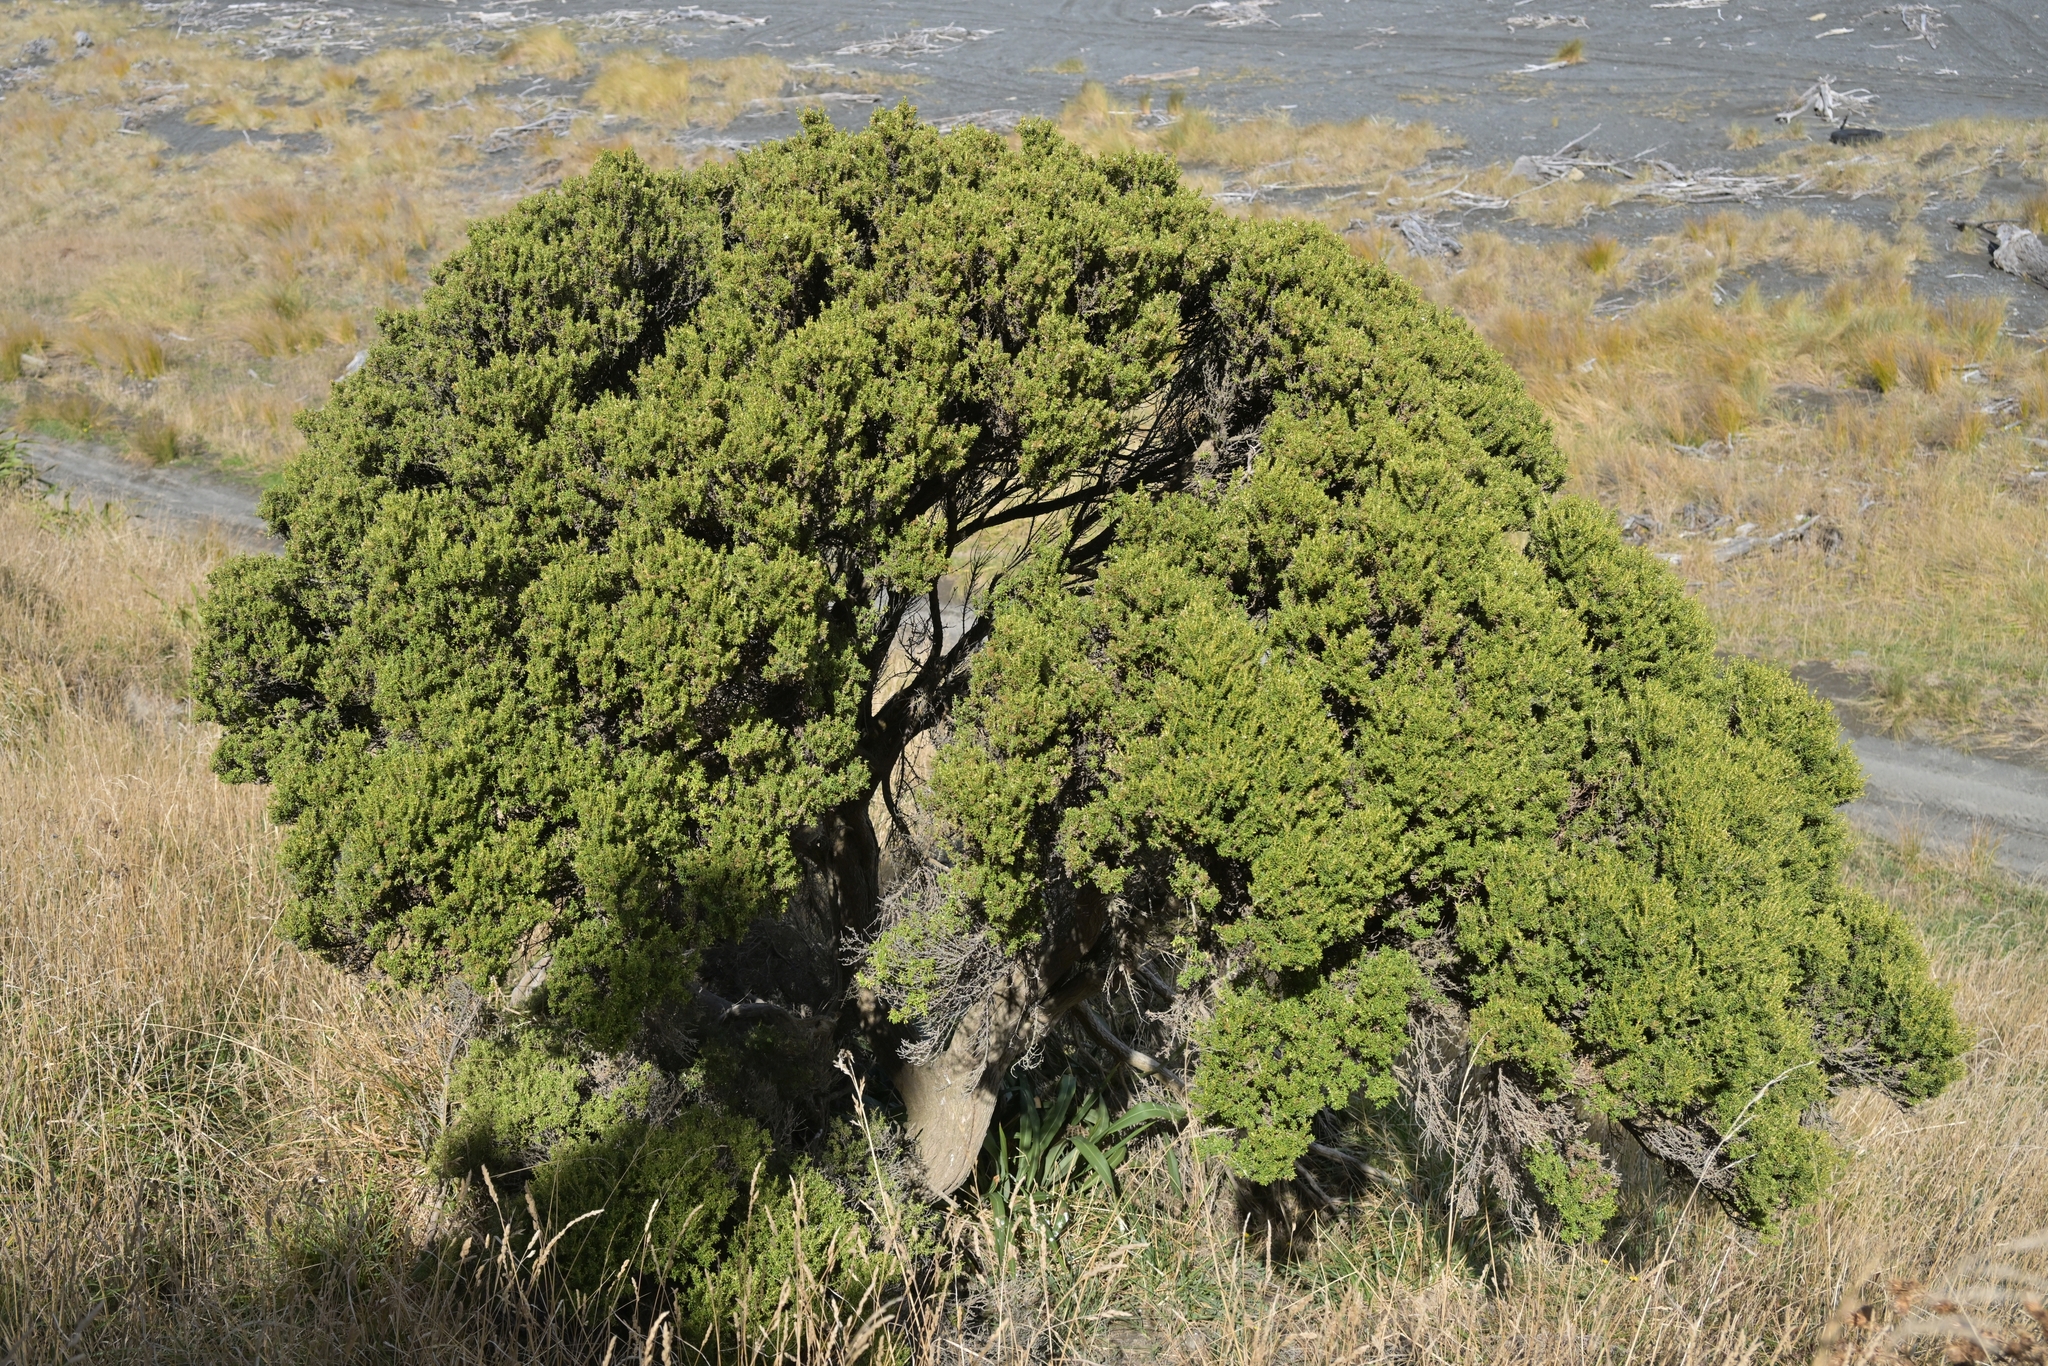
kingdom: Plantae
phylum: Tracheophyta
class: Magnoliopsida
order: Asterales
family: Asteraceae
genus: Olearia
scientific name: Olearia solandri
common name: Coastal daisybush
